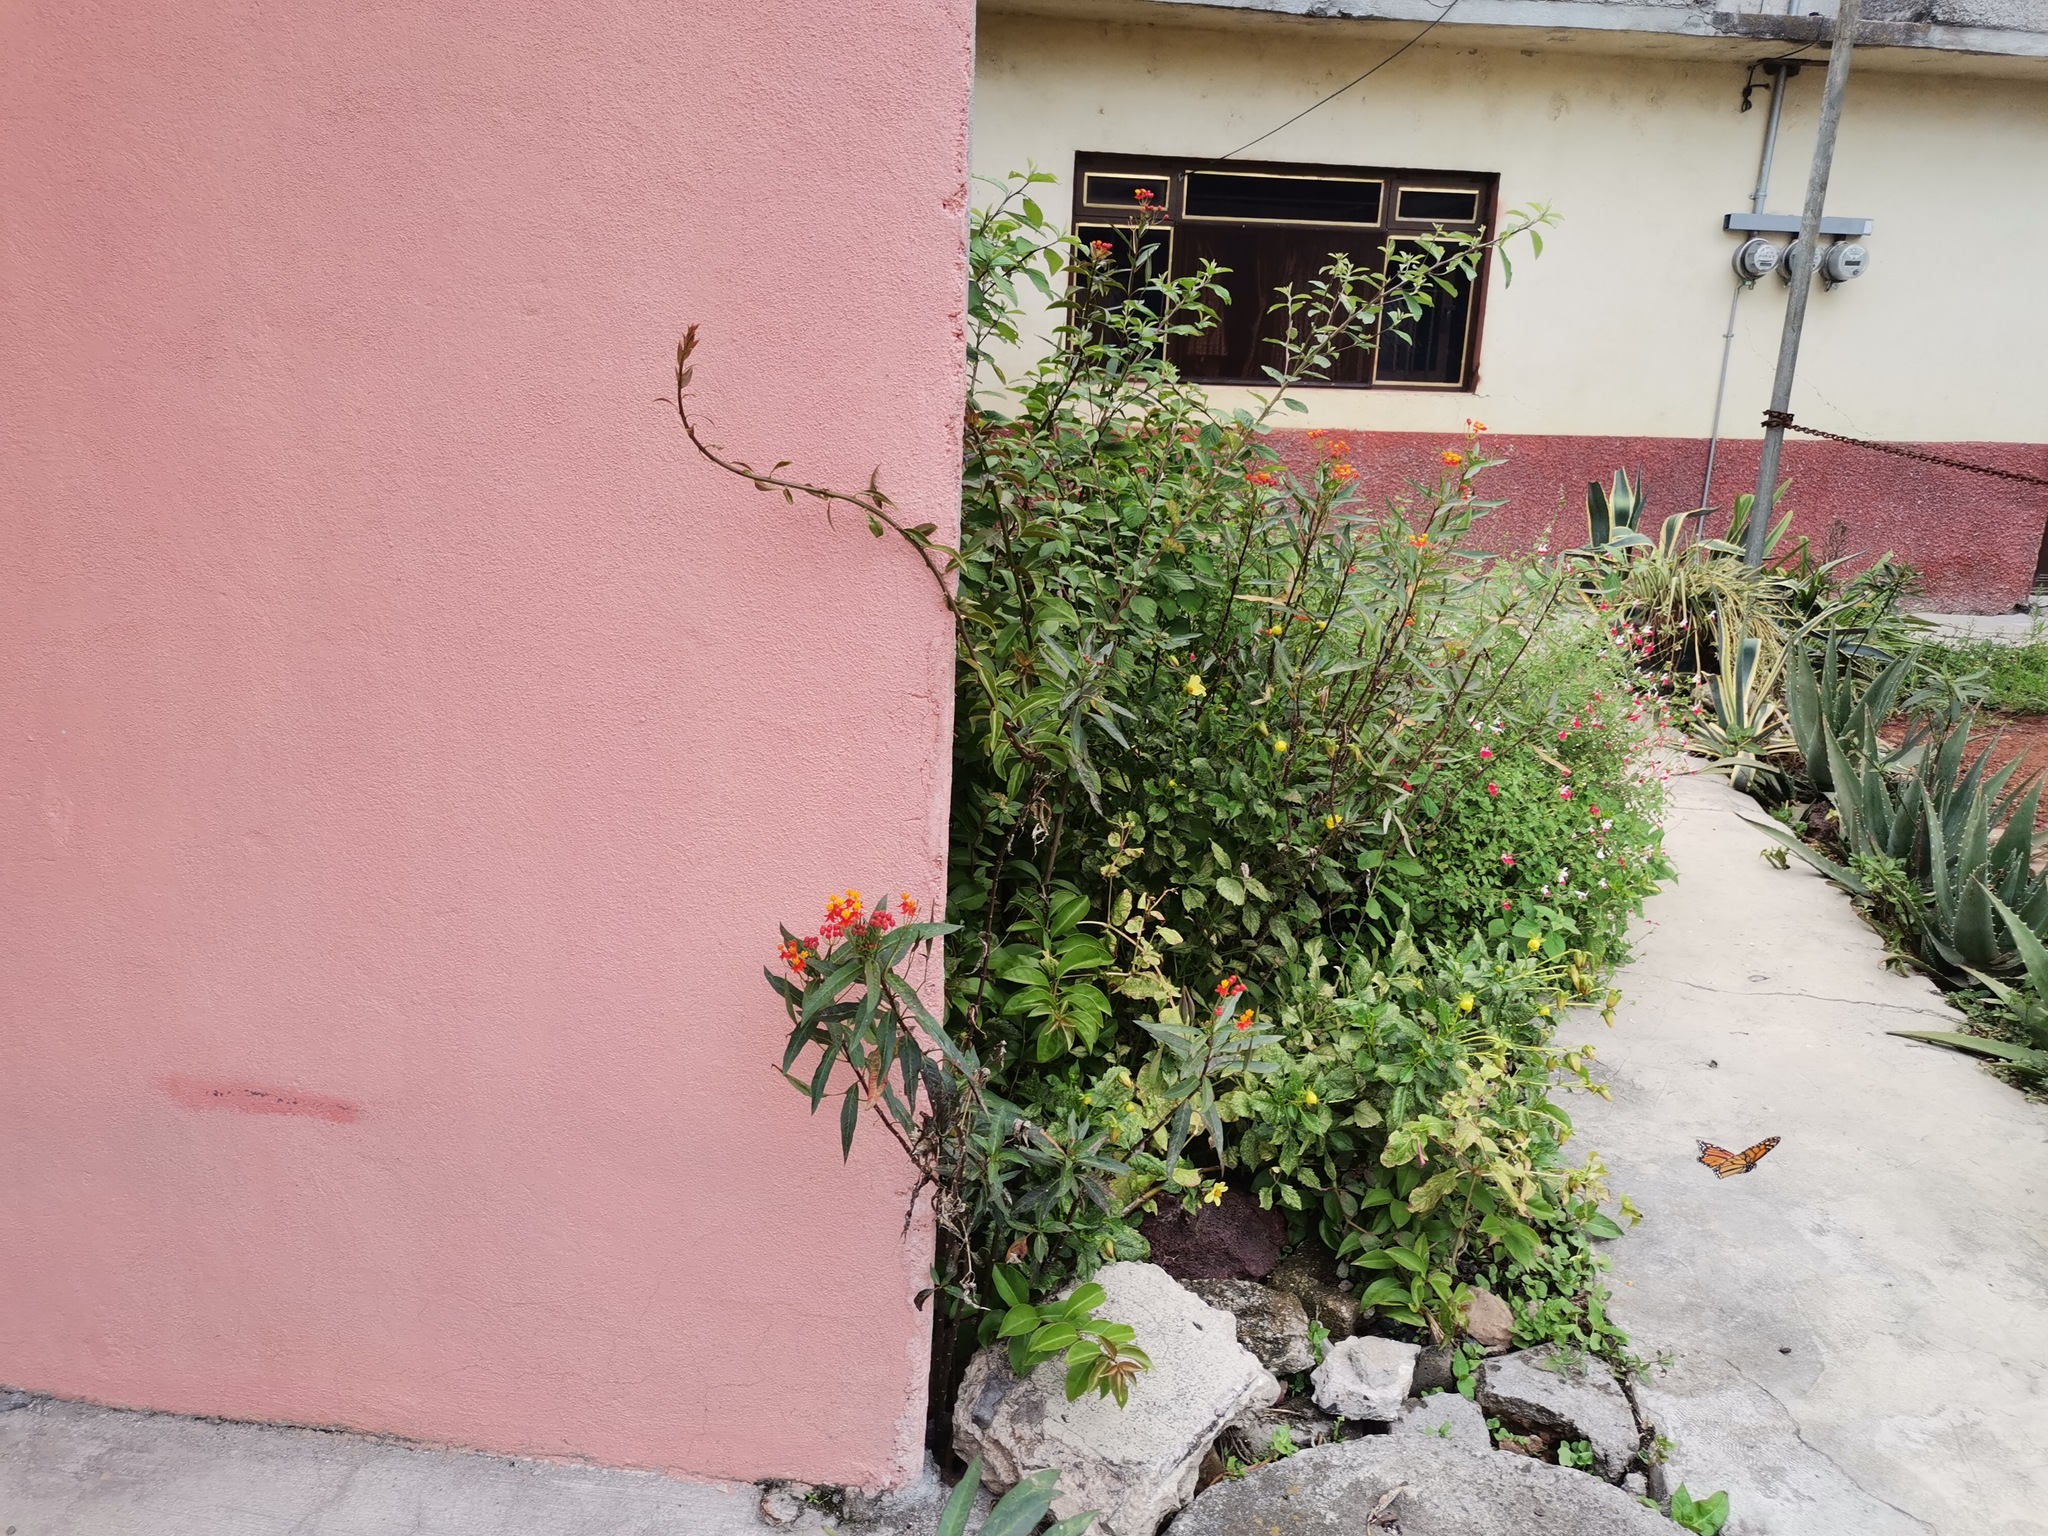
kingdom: Animalia
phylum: Arthropoda
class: Insecta
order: Lepidoptera
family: Nymphalidae
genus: Danaus
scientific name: Danaus plexippus
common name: Monarch
